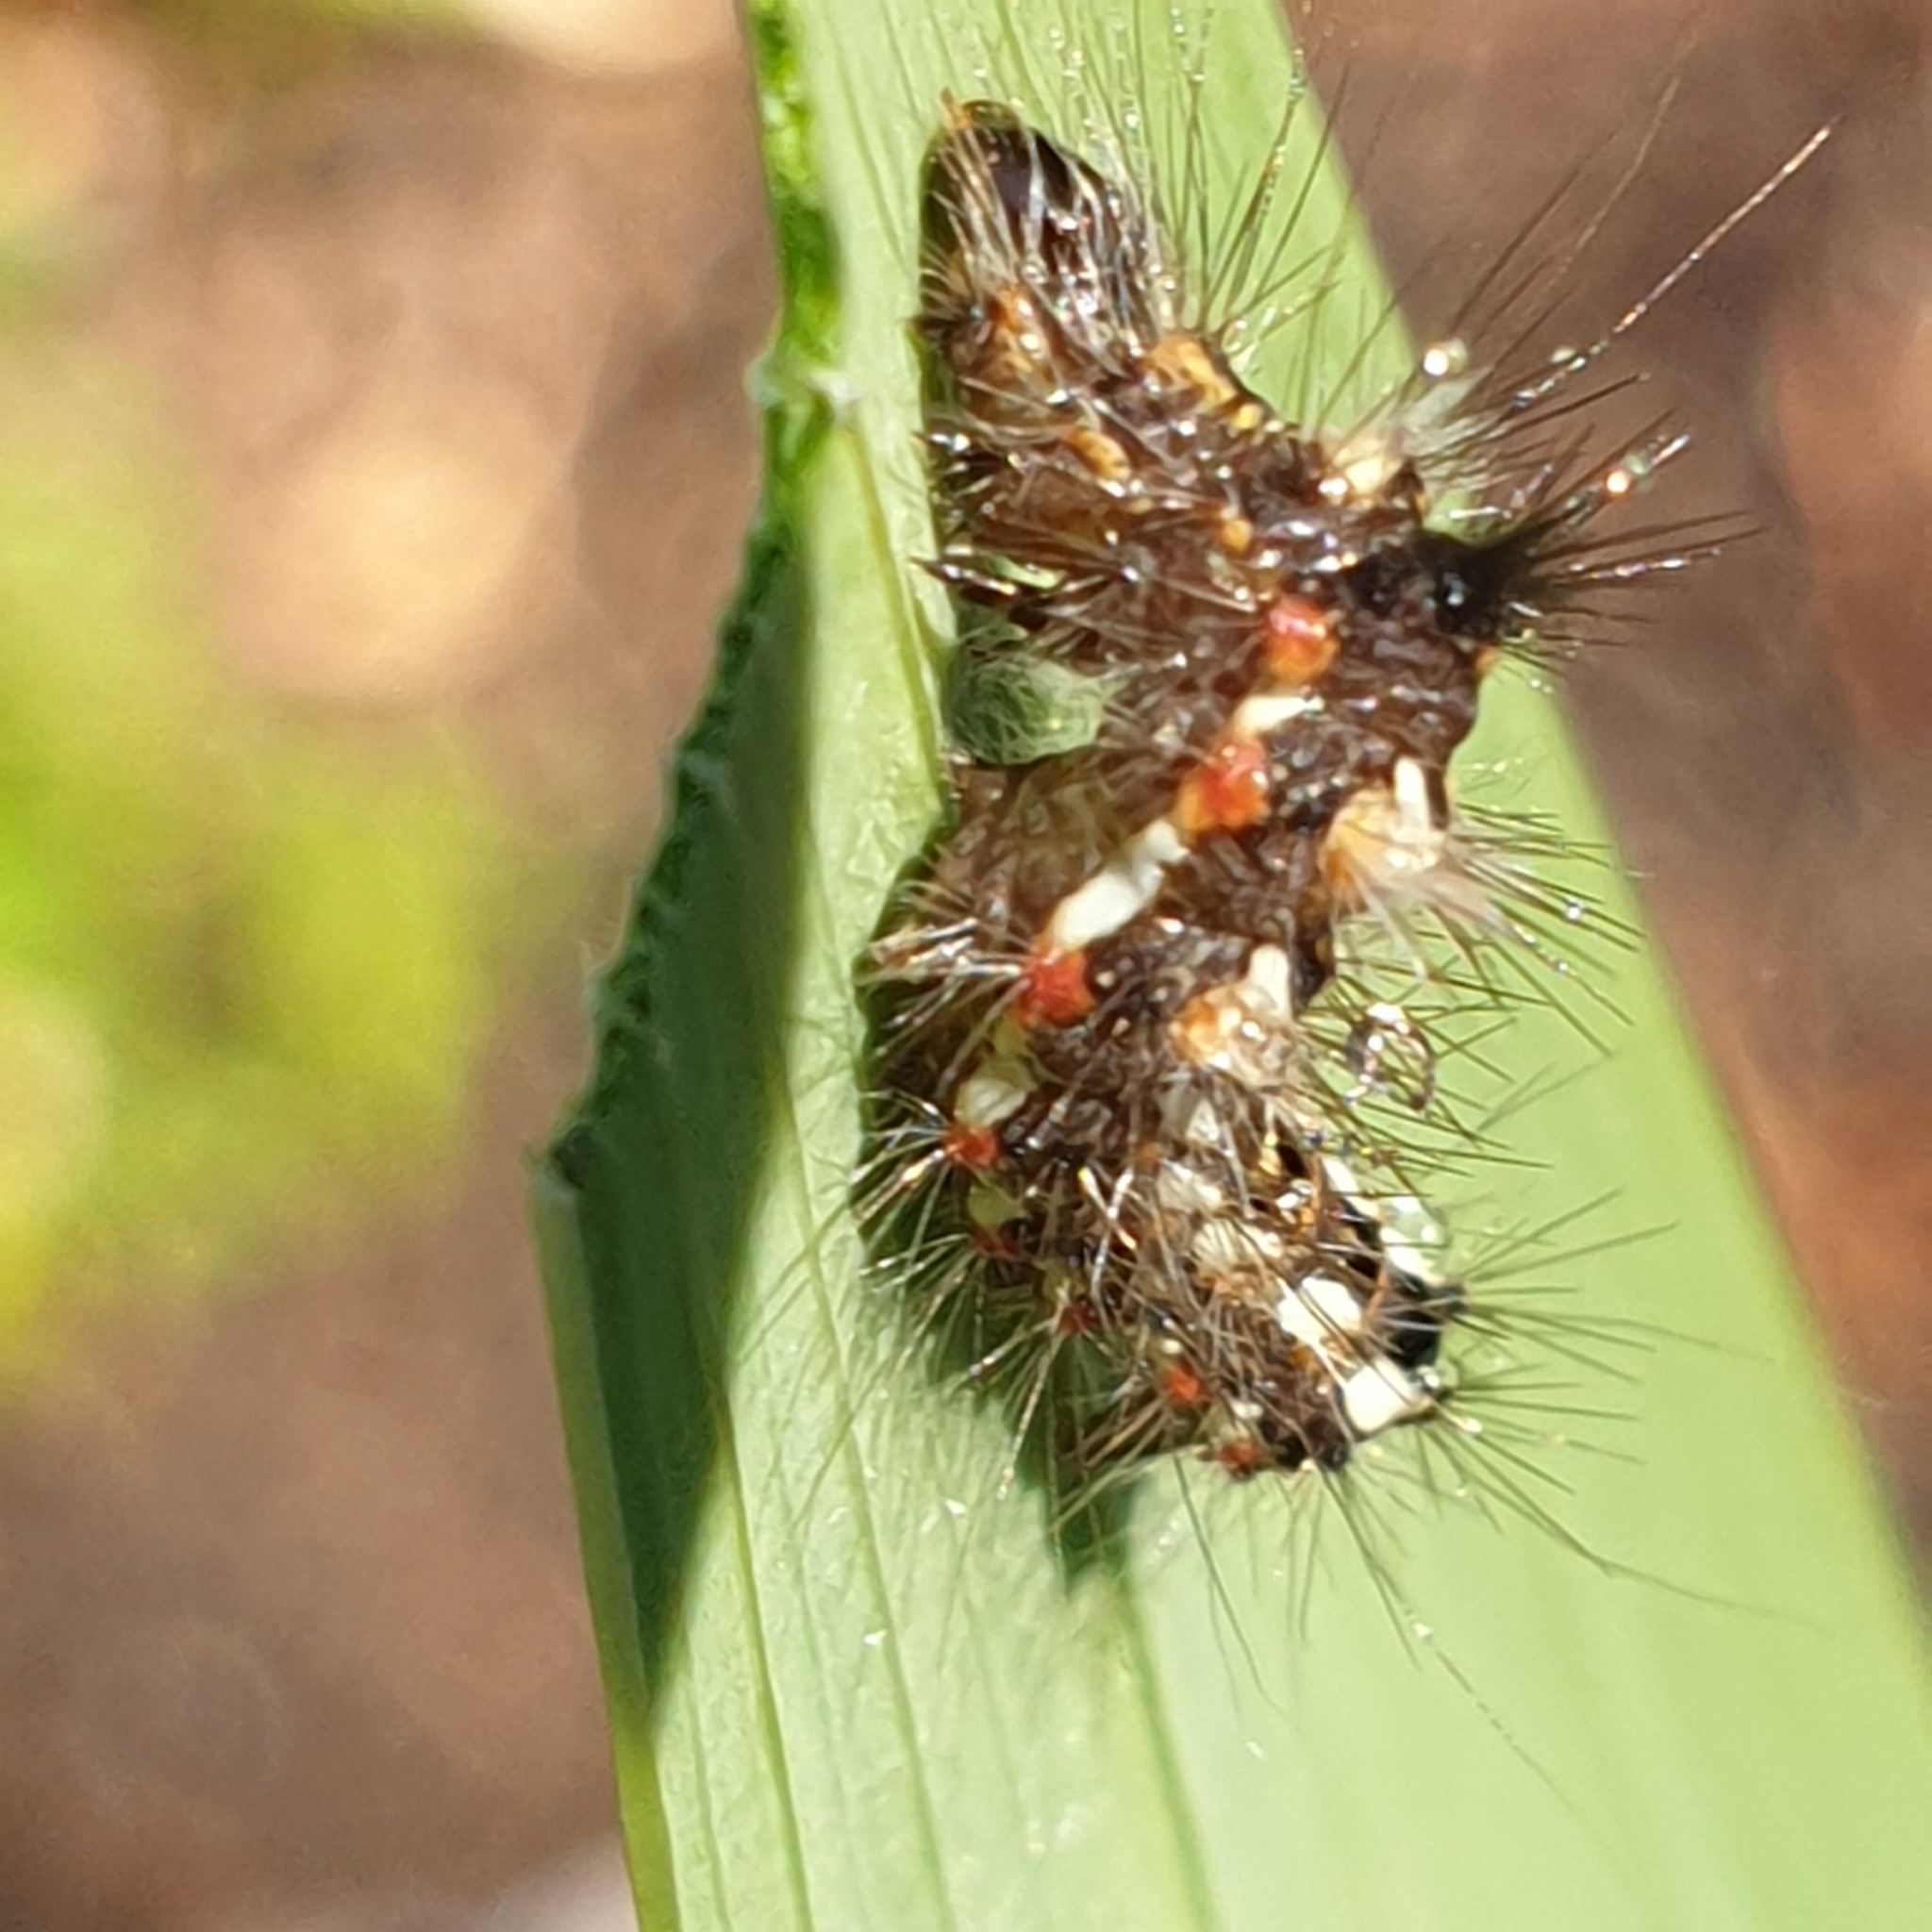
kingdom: Animalia
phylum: Arthropoda
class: Insecta
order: Lepidoptera
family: Noctuidae
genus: Acronicta
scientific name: Acronicta rumicis
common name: Knot grass
